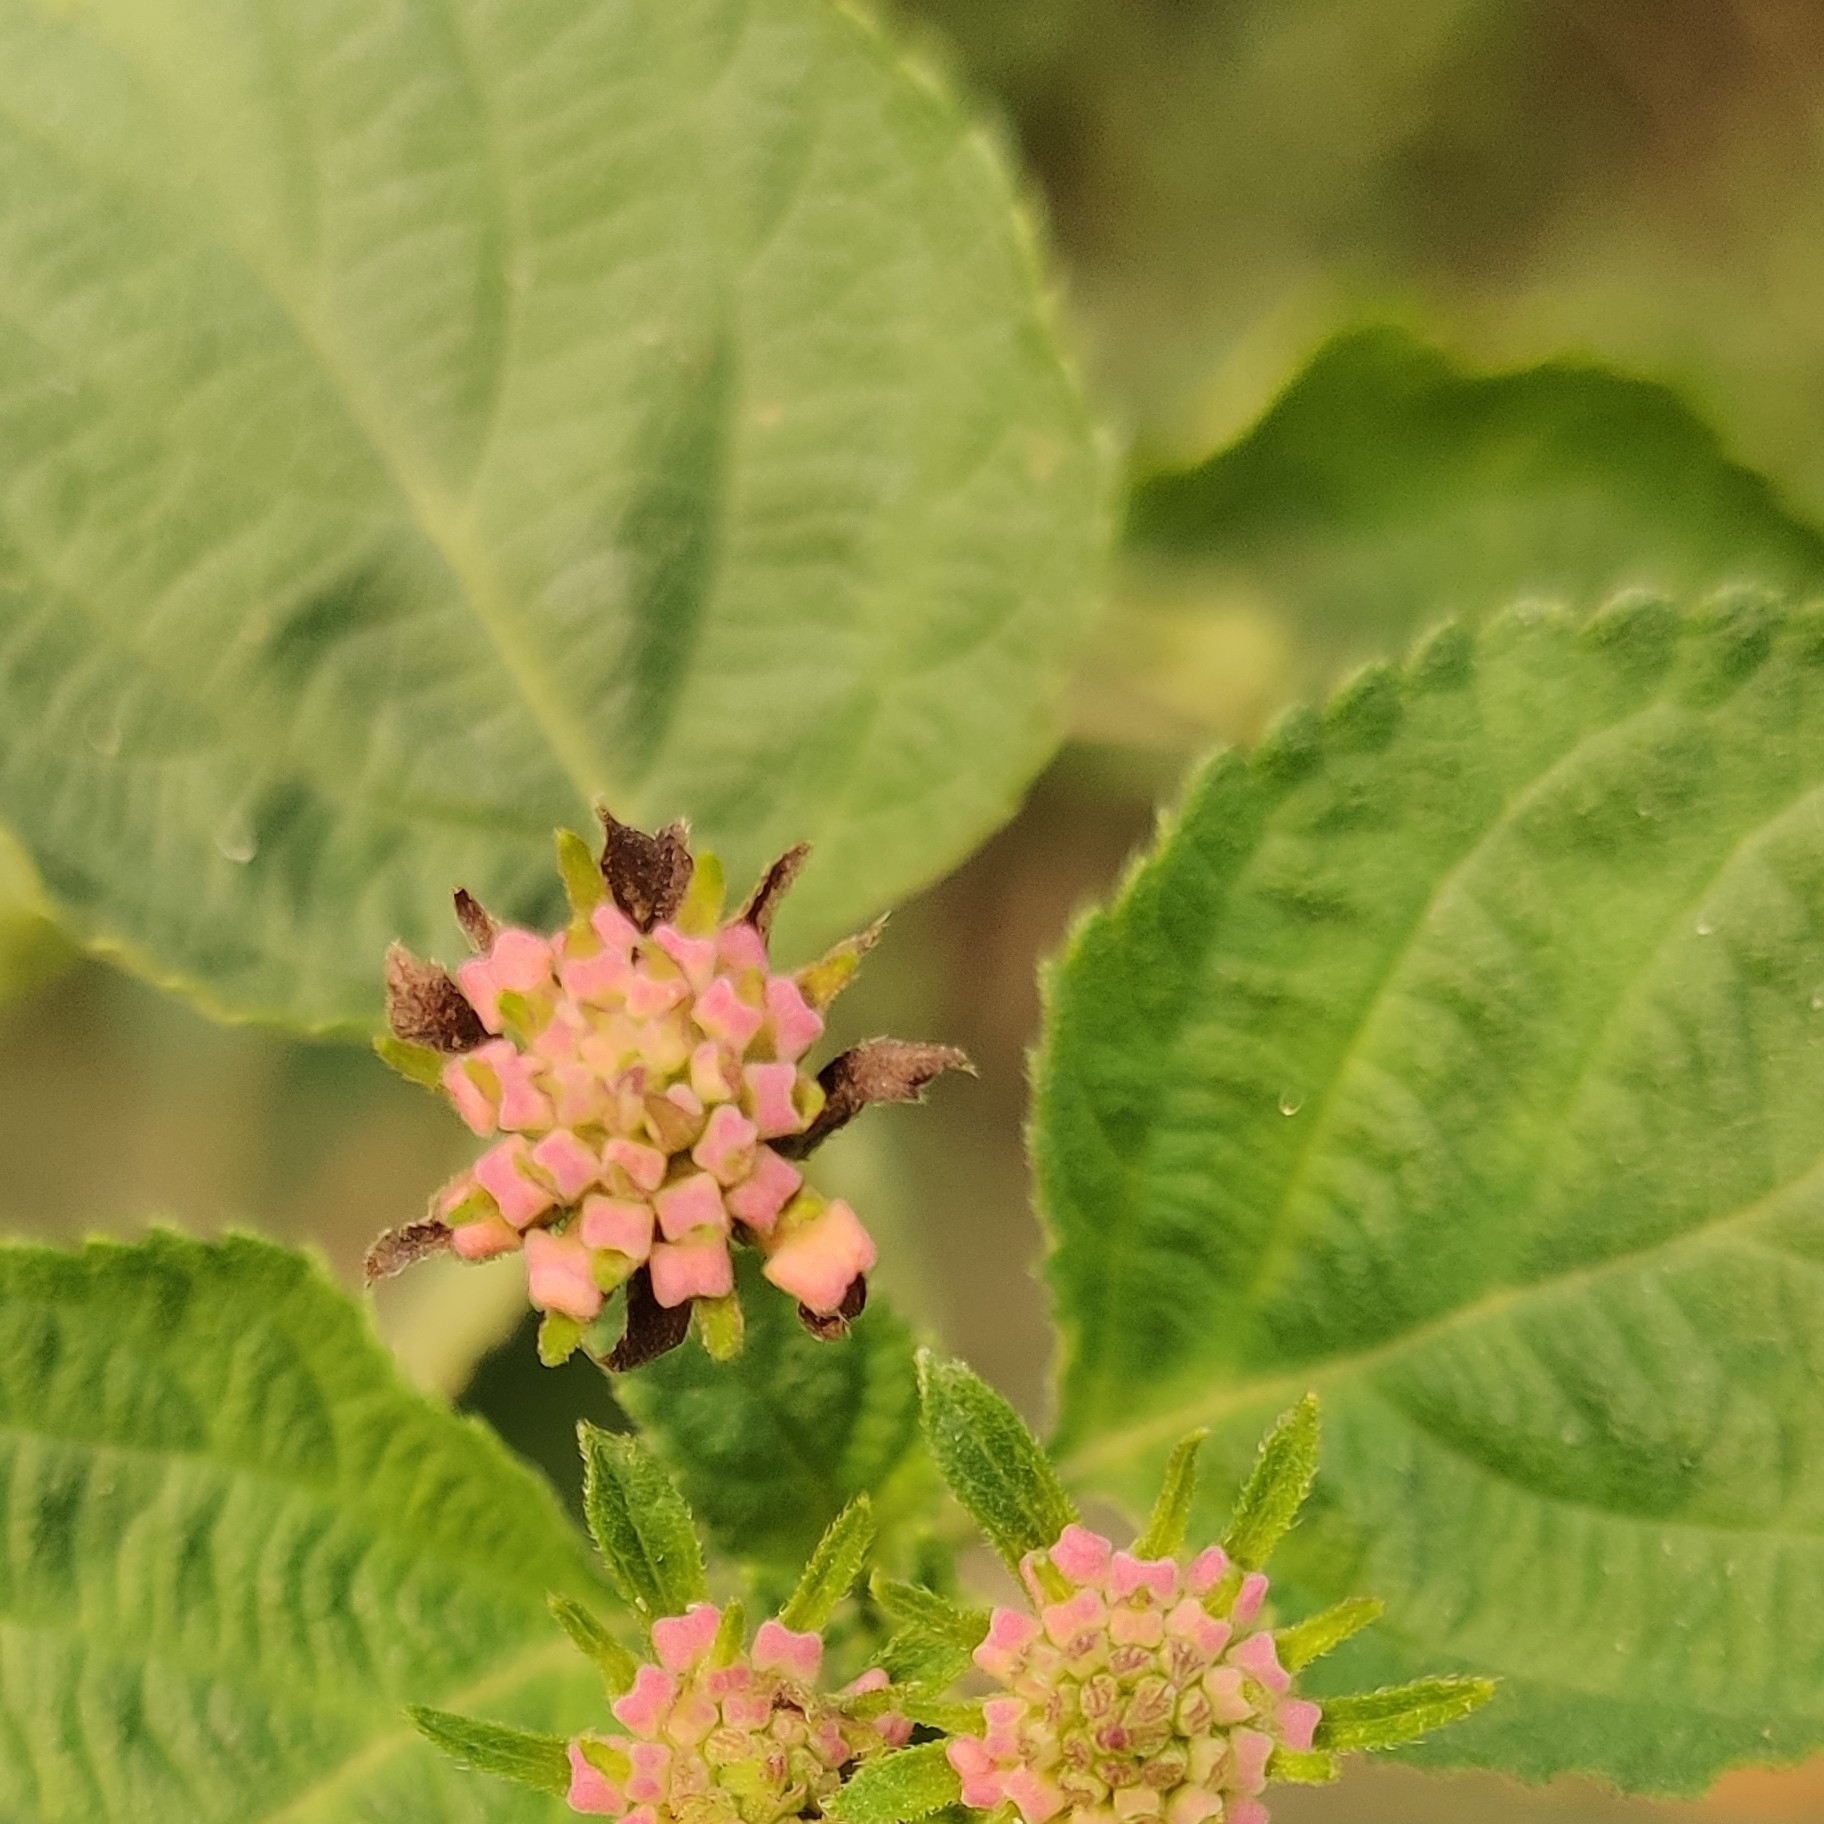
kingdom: Plantae
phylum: Tracheophyta
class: Magnoliopsida
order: Lamiales
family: Verbenaceae
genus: Lantana
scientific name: Lantana camara
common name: Lantana
